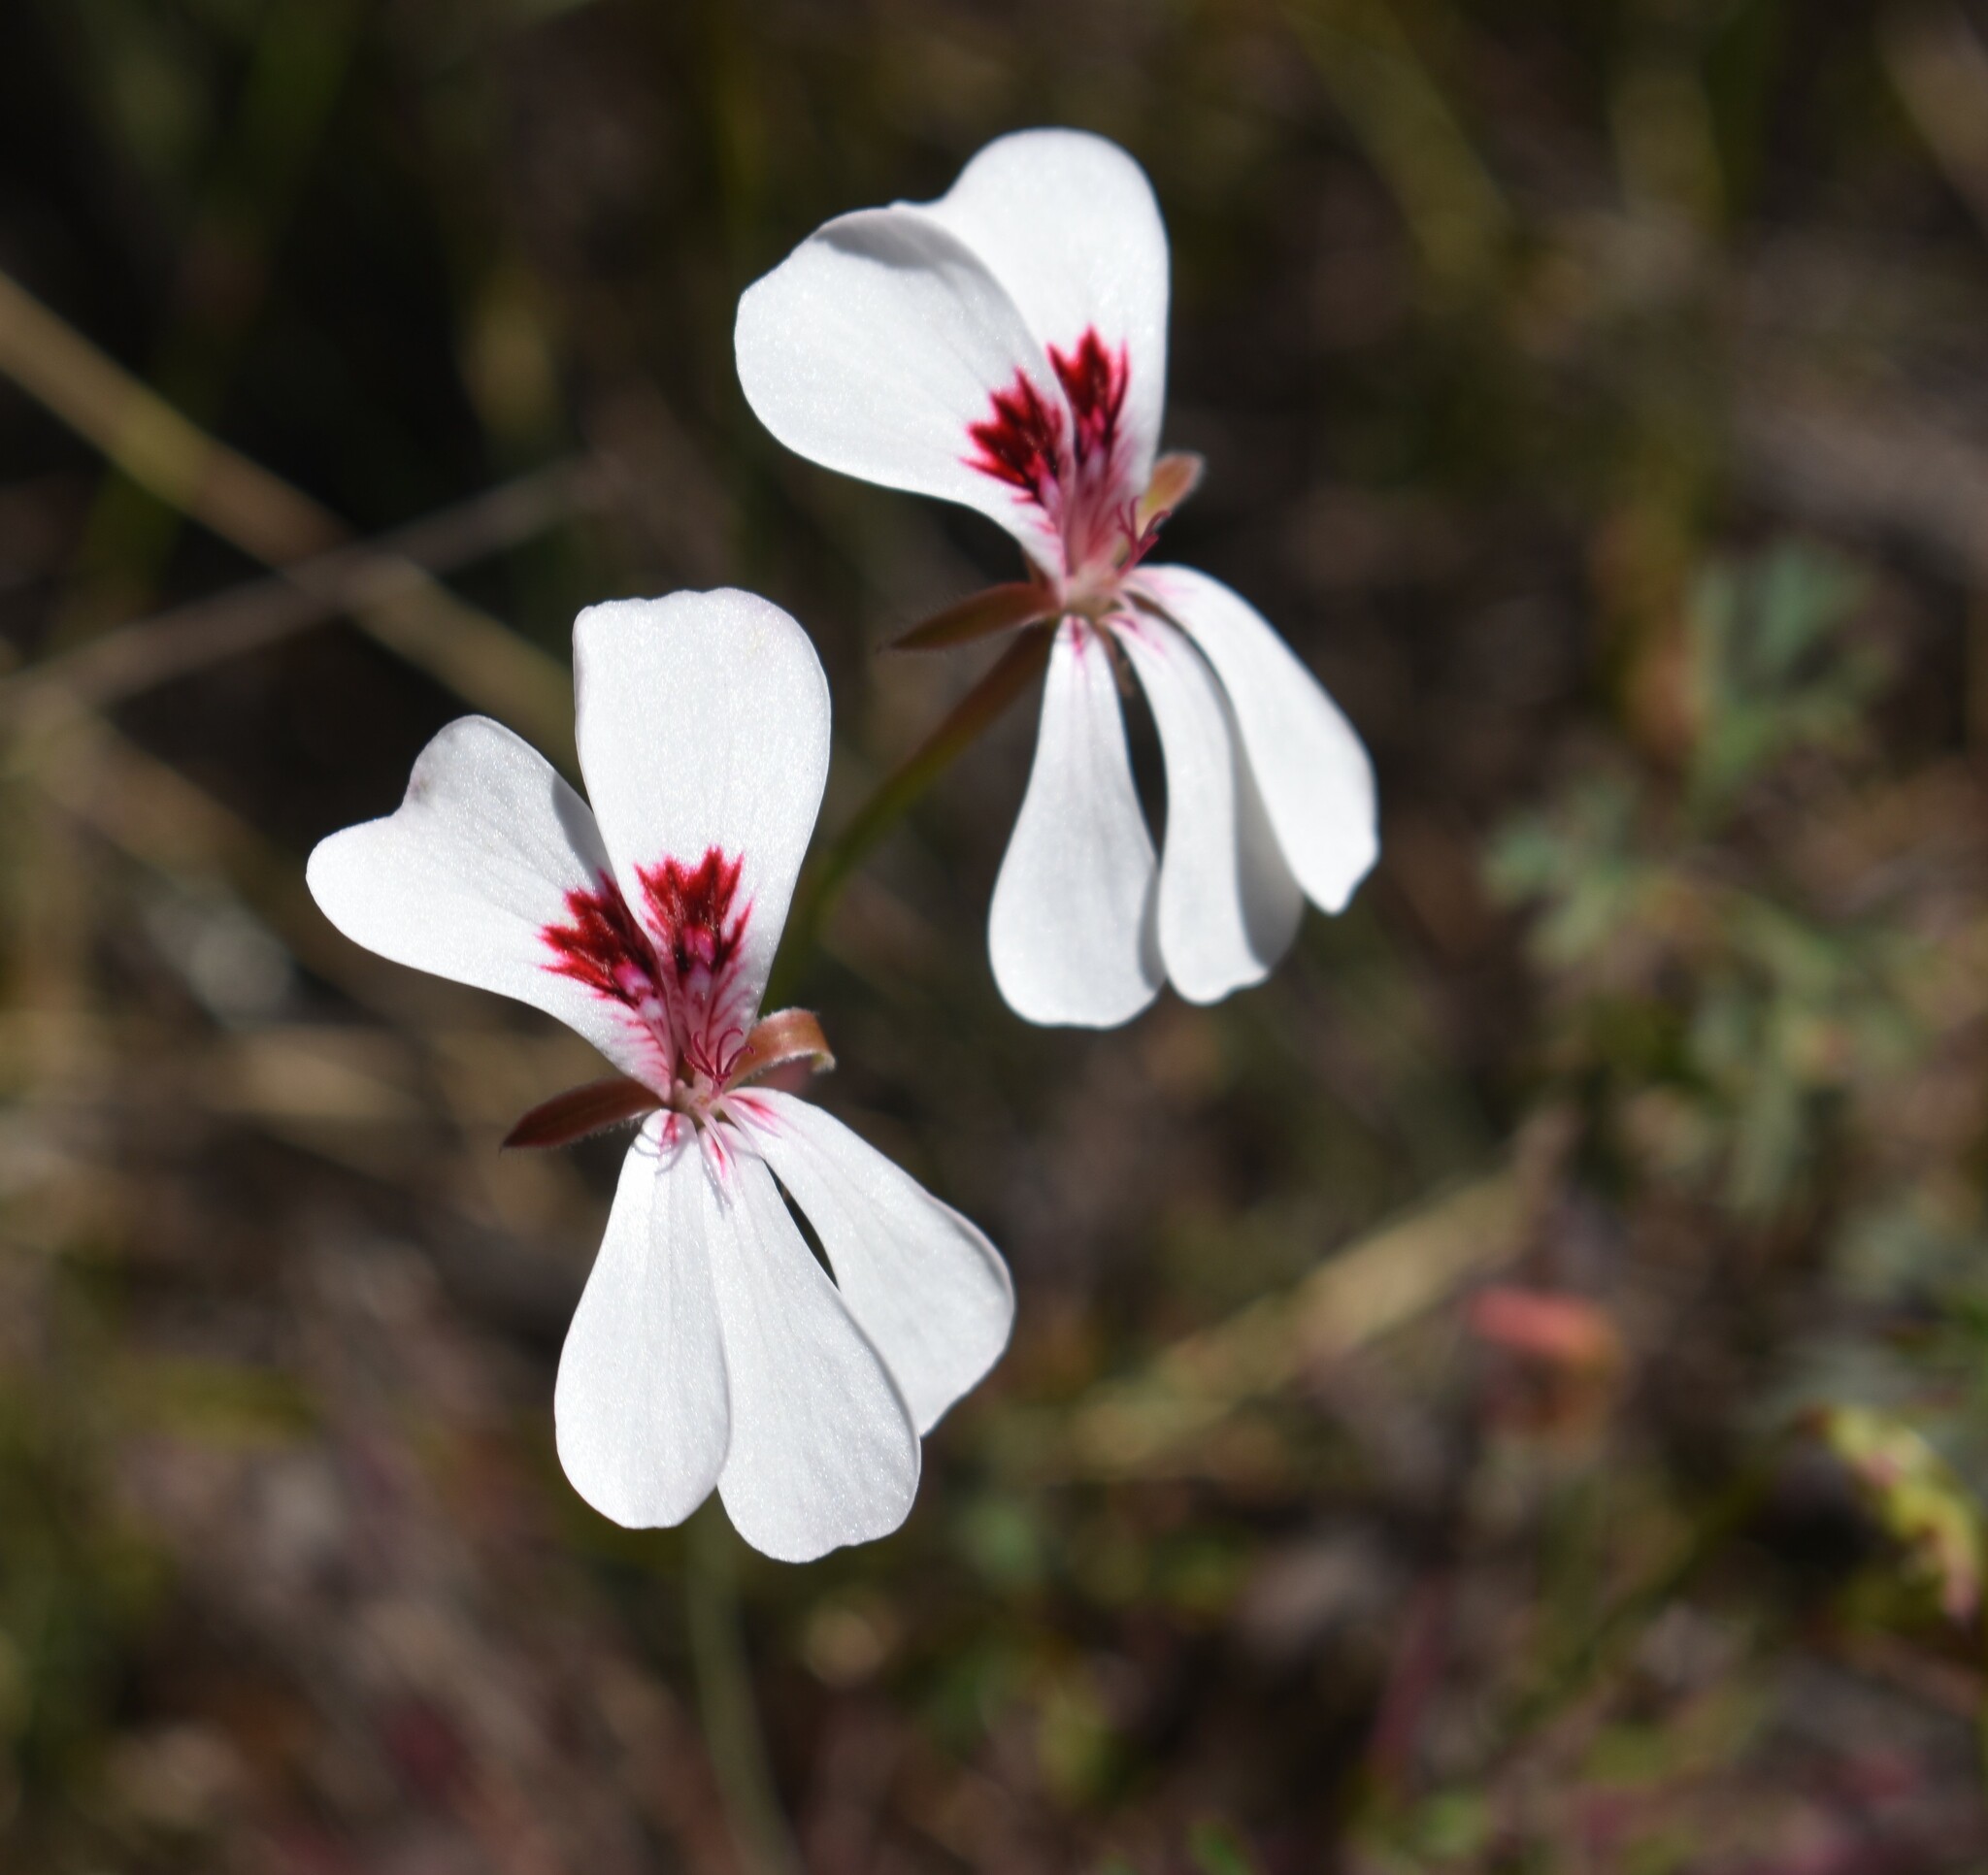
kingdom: Plantae
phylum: Tracheophyta
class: Magnoliopsida
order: Geraniales
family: Geraniaceae
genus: Pelargonium
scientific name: Pelargonium patulum
